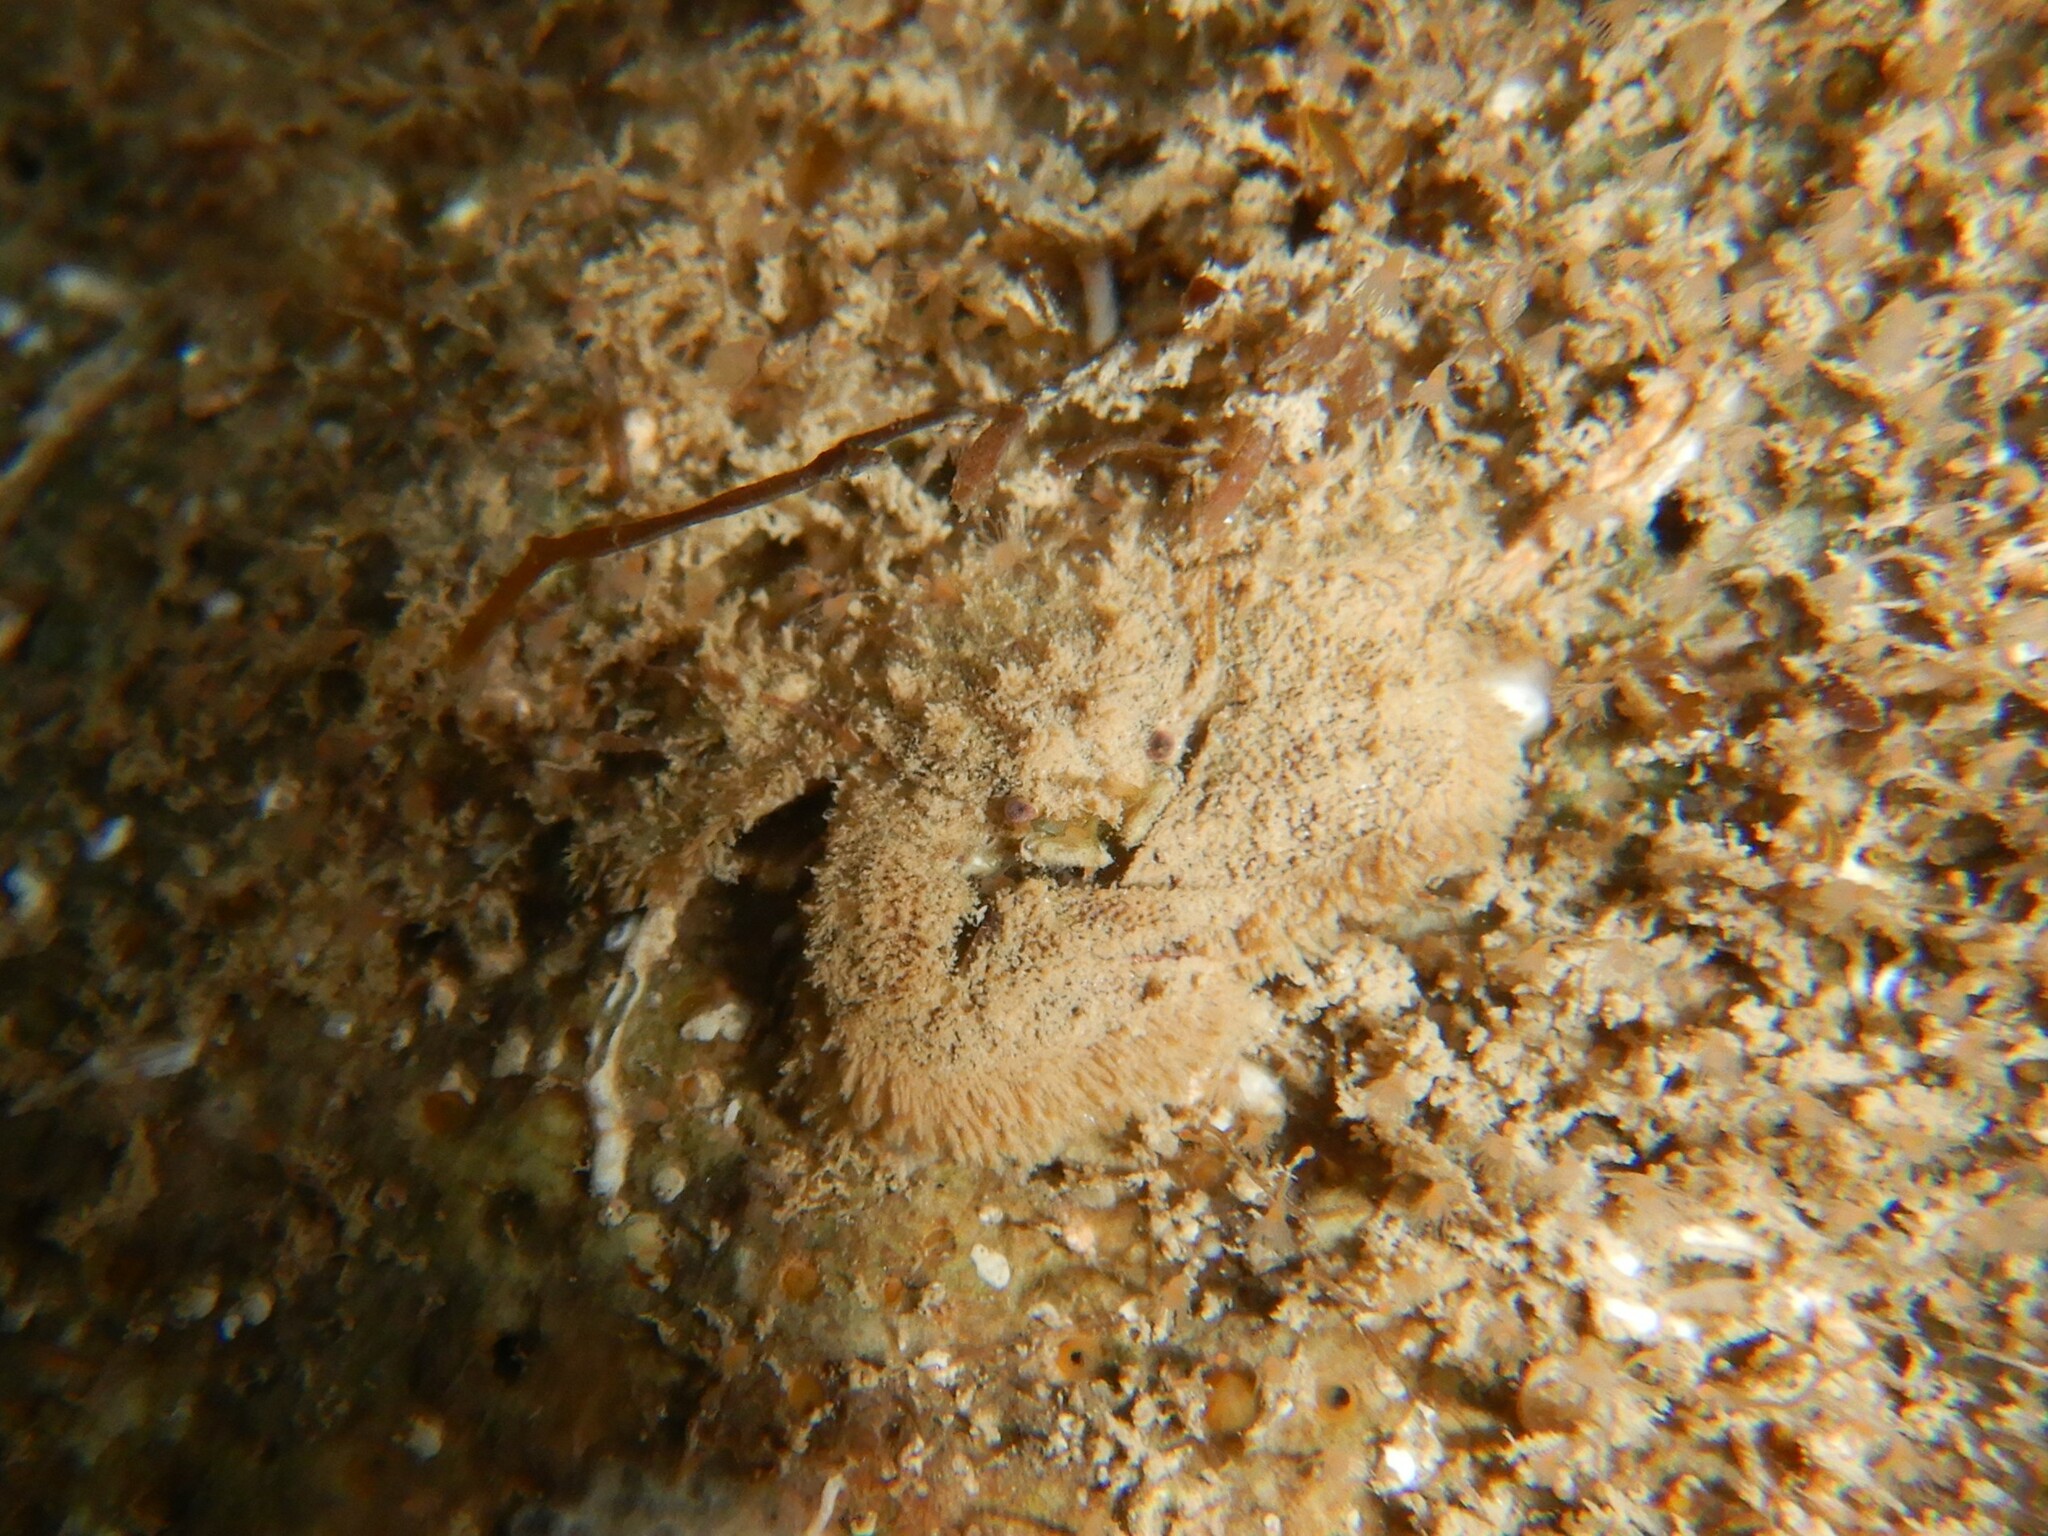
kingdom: Animalia
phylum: Arthropoda
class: Malacostraca
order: Decapoda
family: Porcellanidae
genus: Porcellana
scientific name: Porcellana platycheles
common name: Porcelain crab
